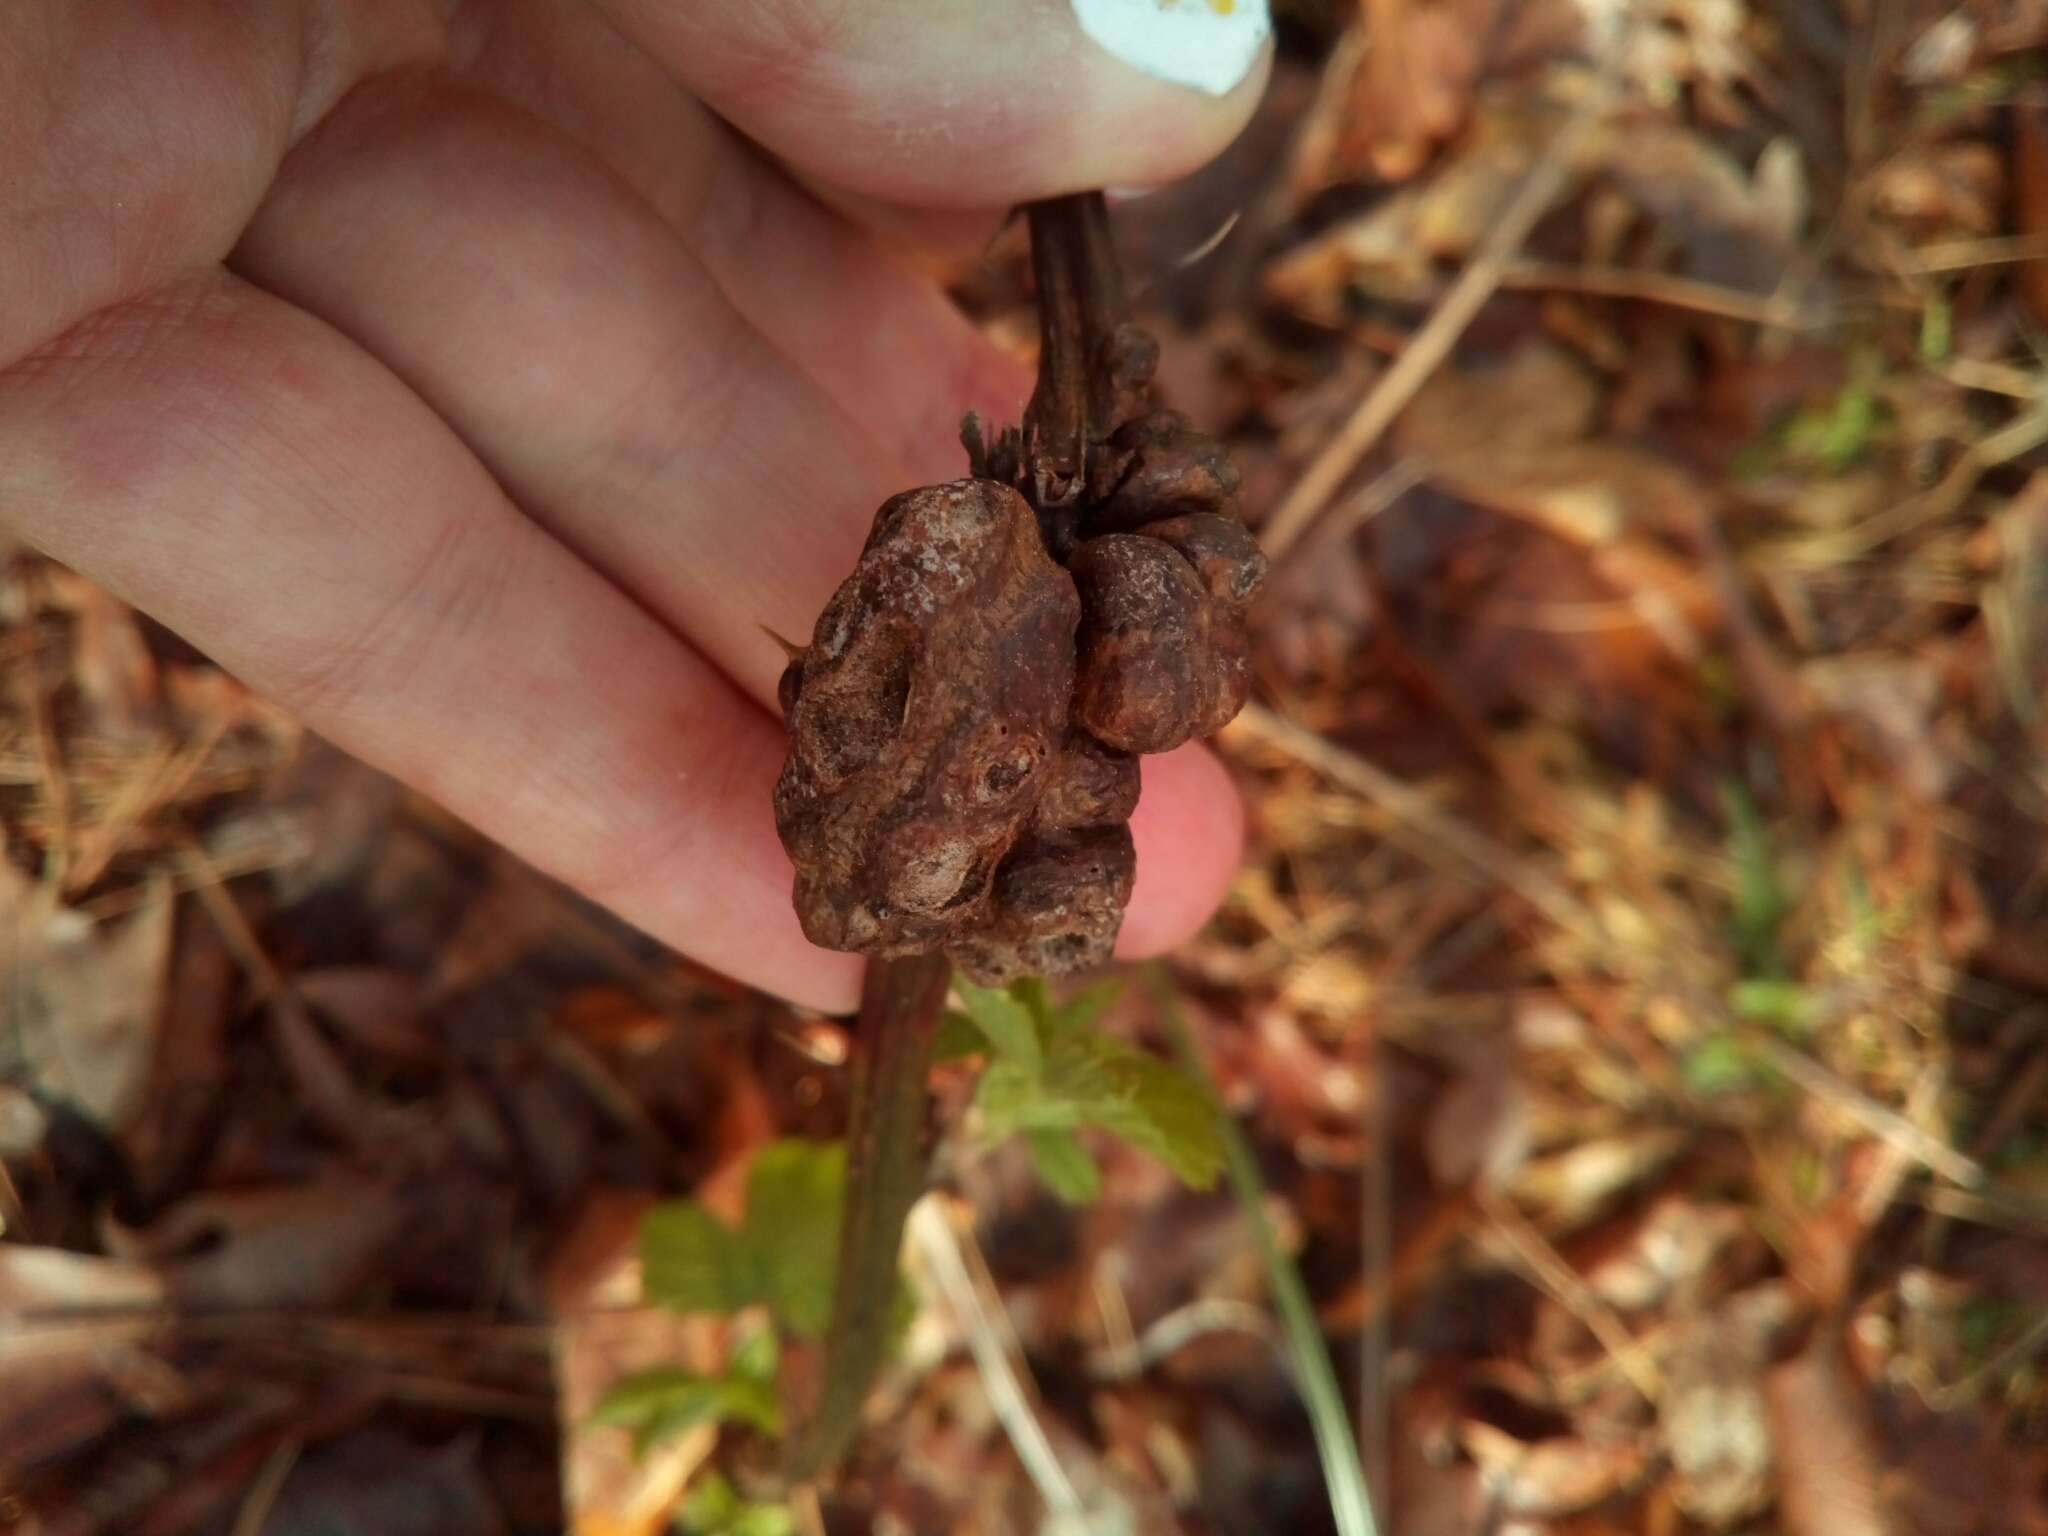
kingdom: Animalia
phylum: Arthropoda
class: Insecta
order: Hymenoptera
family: Cynipidae
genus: Diastrophus
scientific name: Diastrophus
